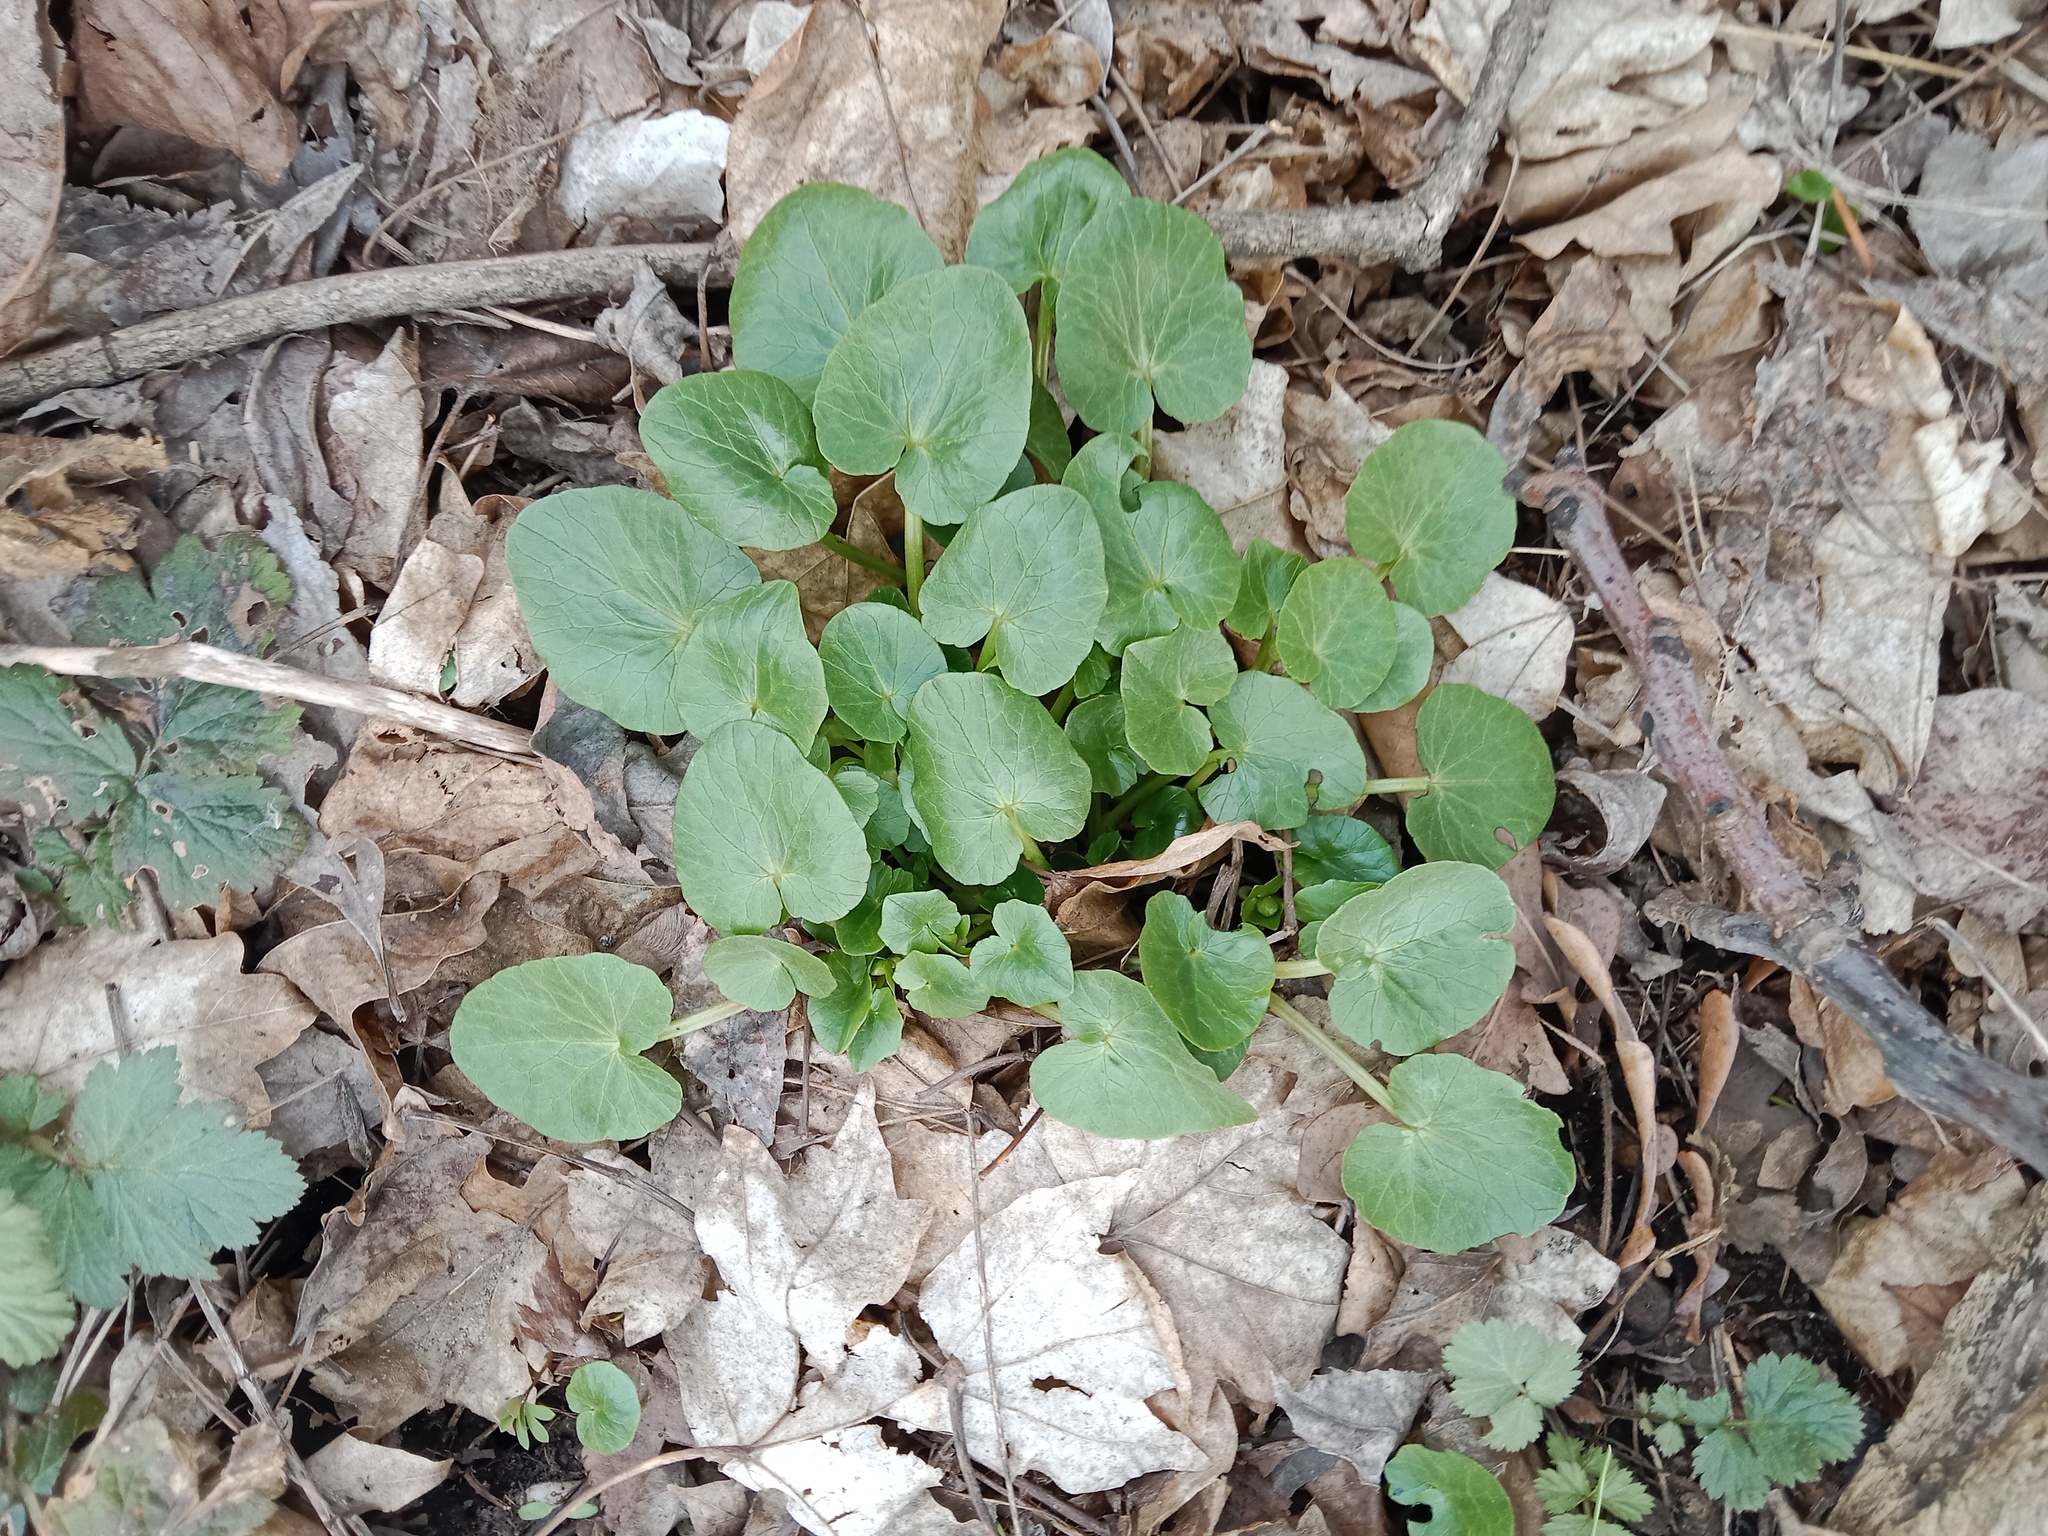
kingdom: Plantae
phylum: Tracheophyta
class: Magnoliopsida
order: Ranunculales
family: Ranunculaceae
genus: Ficaria
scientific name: Ficaria verna
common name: Lesser celandine
